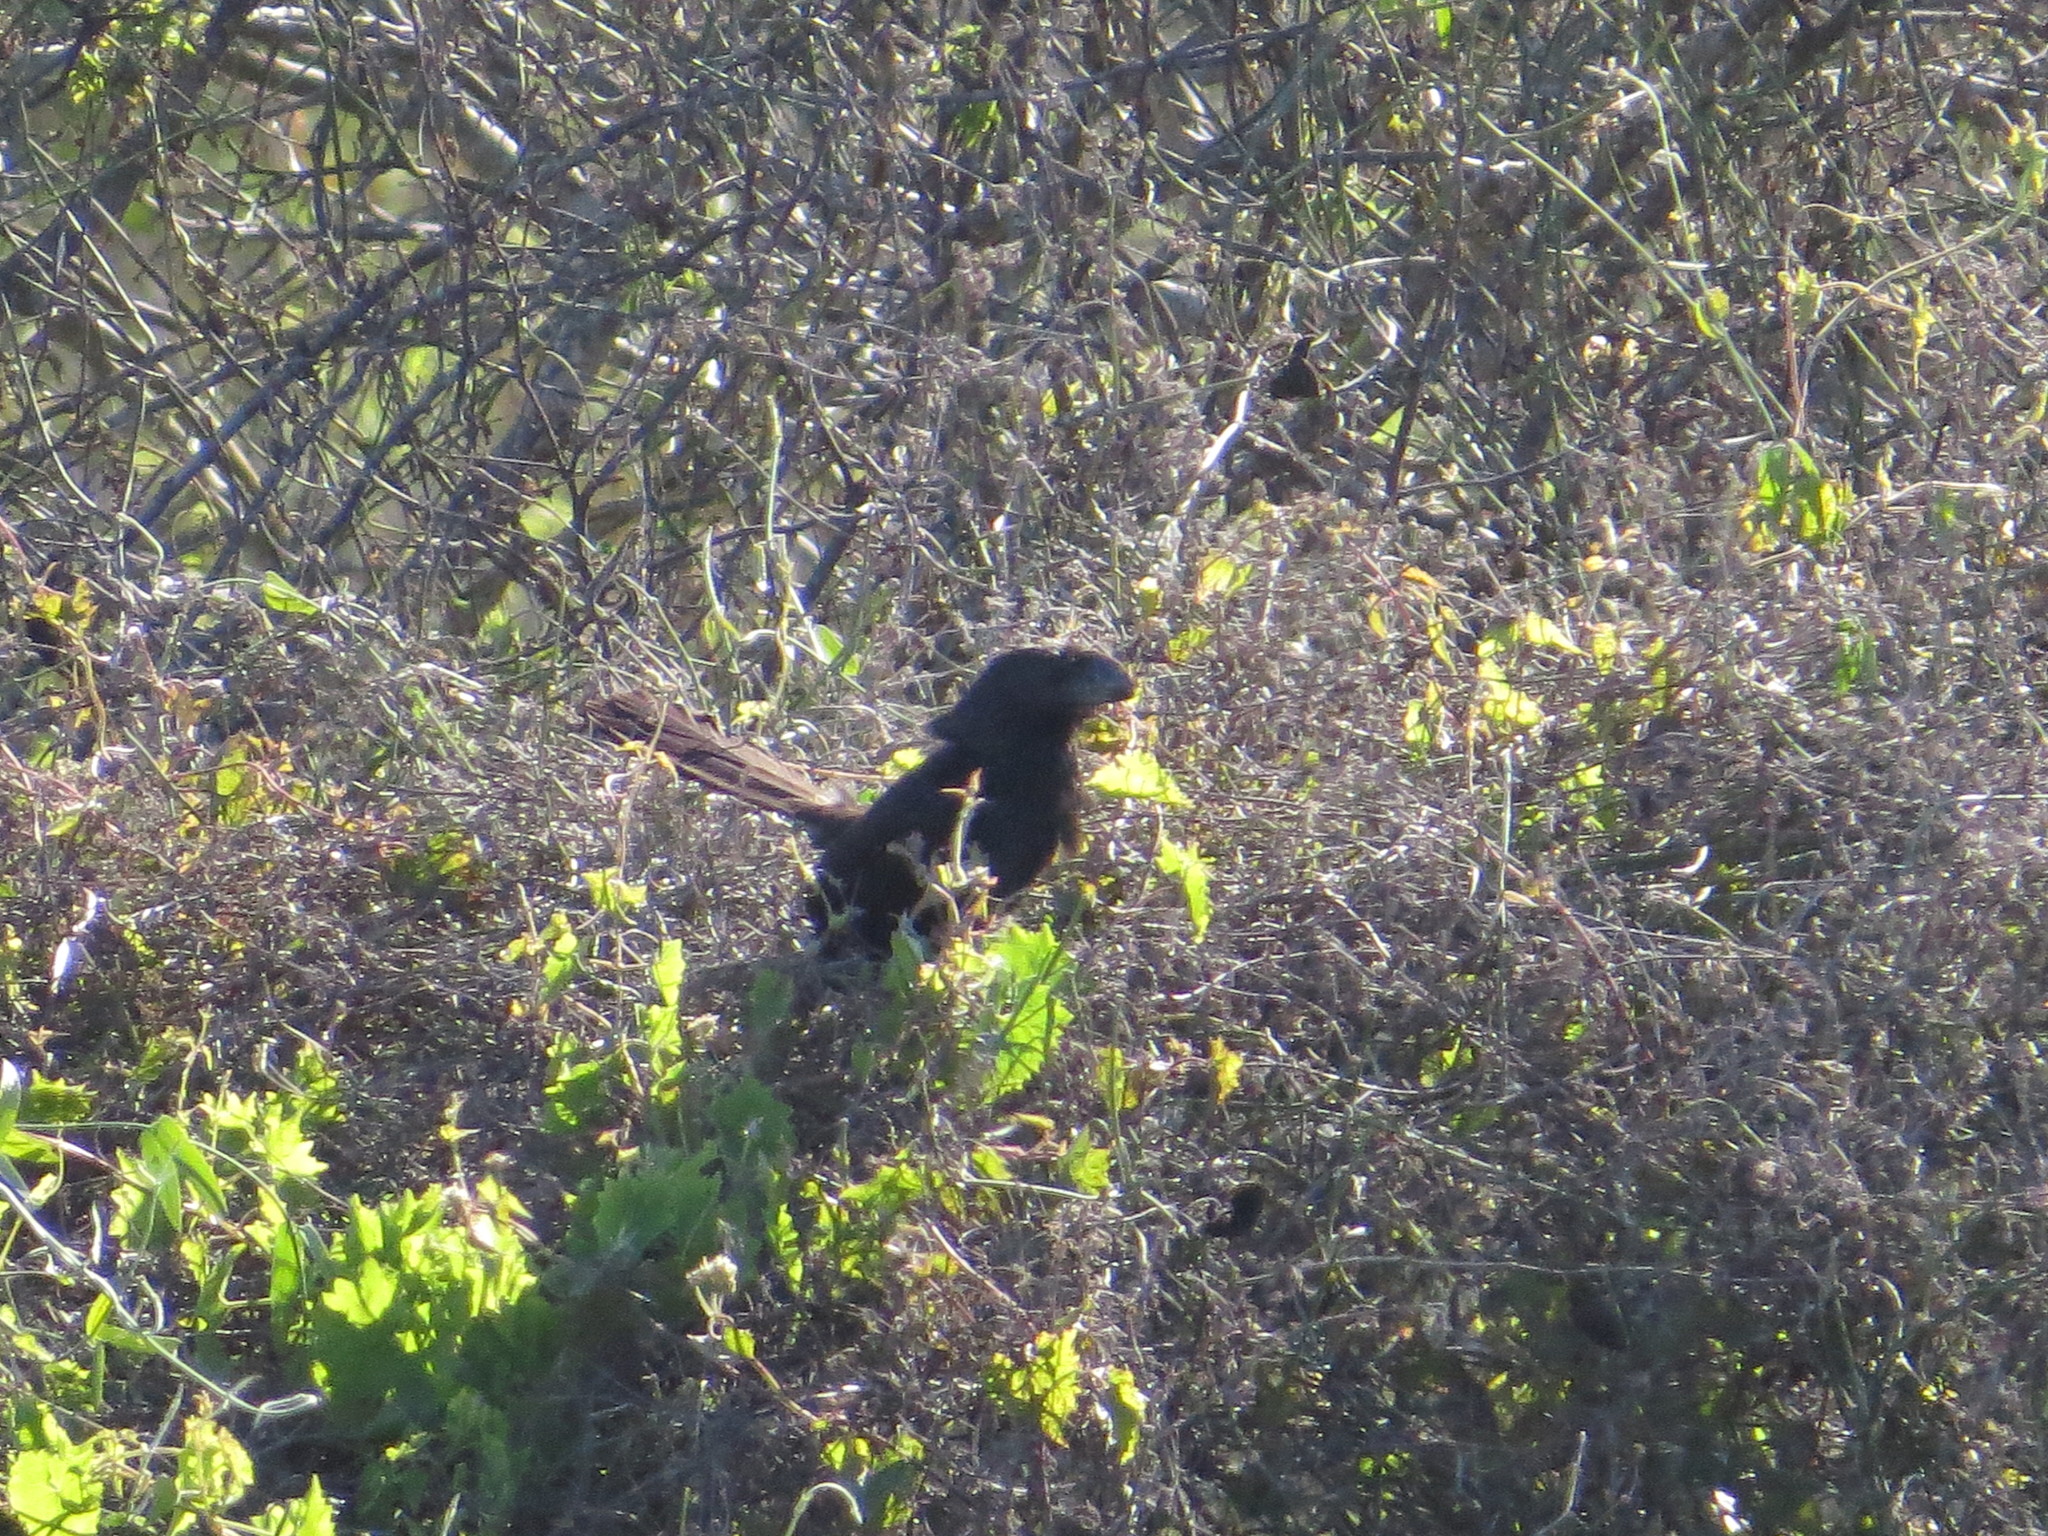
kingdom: Animalia
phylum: Chordata
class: Aves
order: Cuculiformes
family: Cuculidae
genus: Crotophaga
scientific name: Crotophaga ani
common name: Smooth-billed ani
